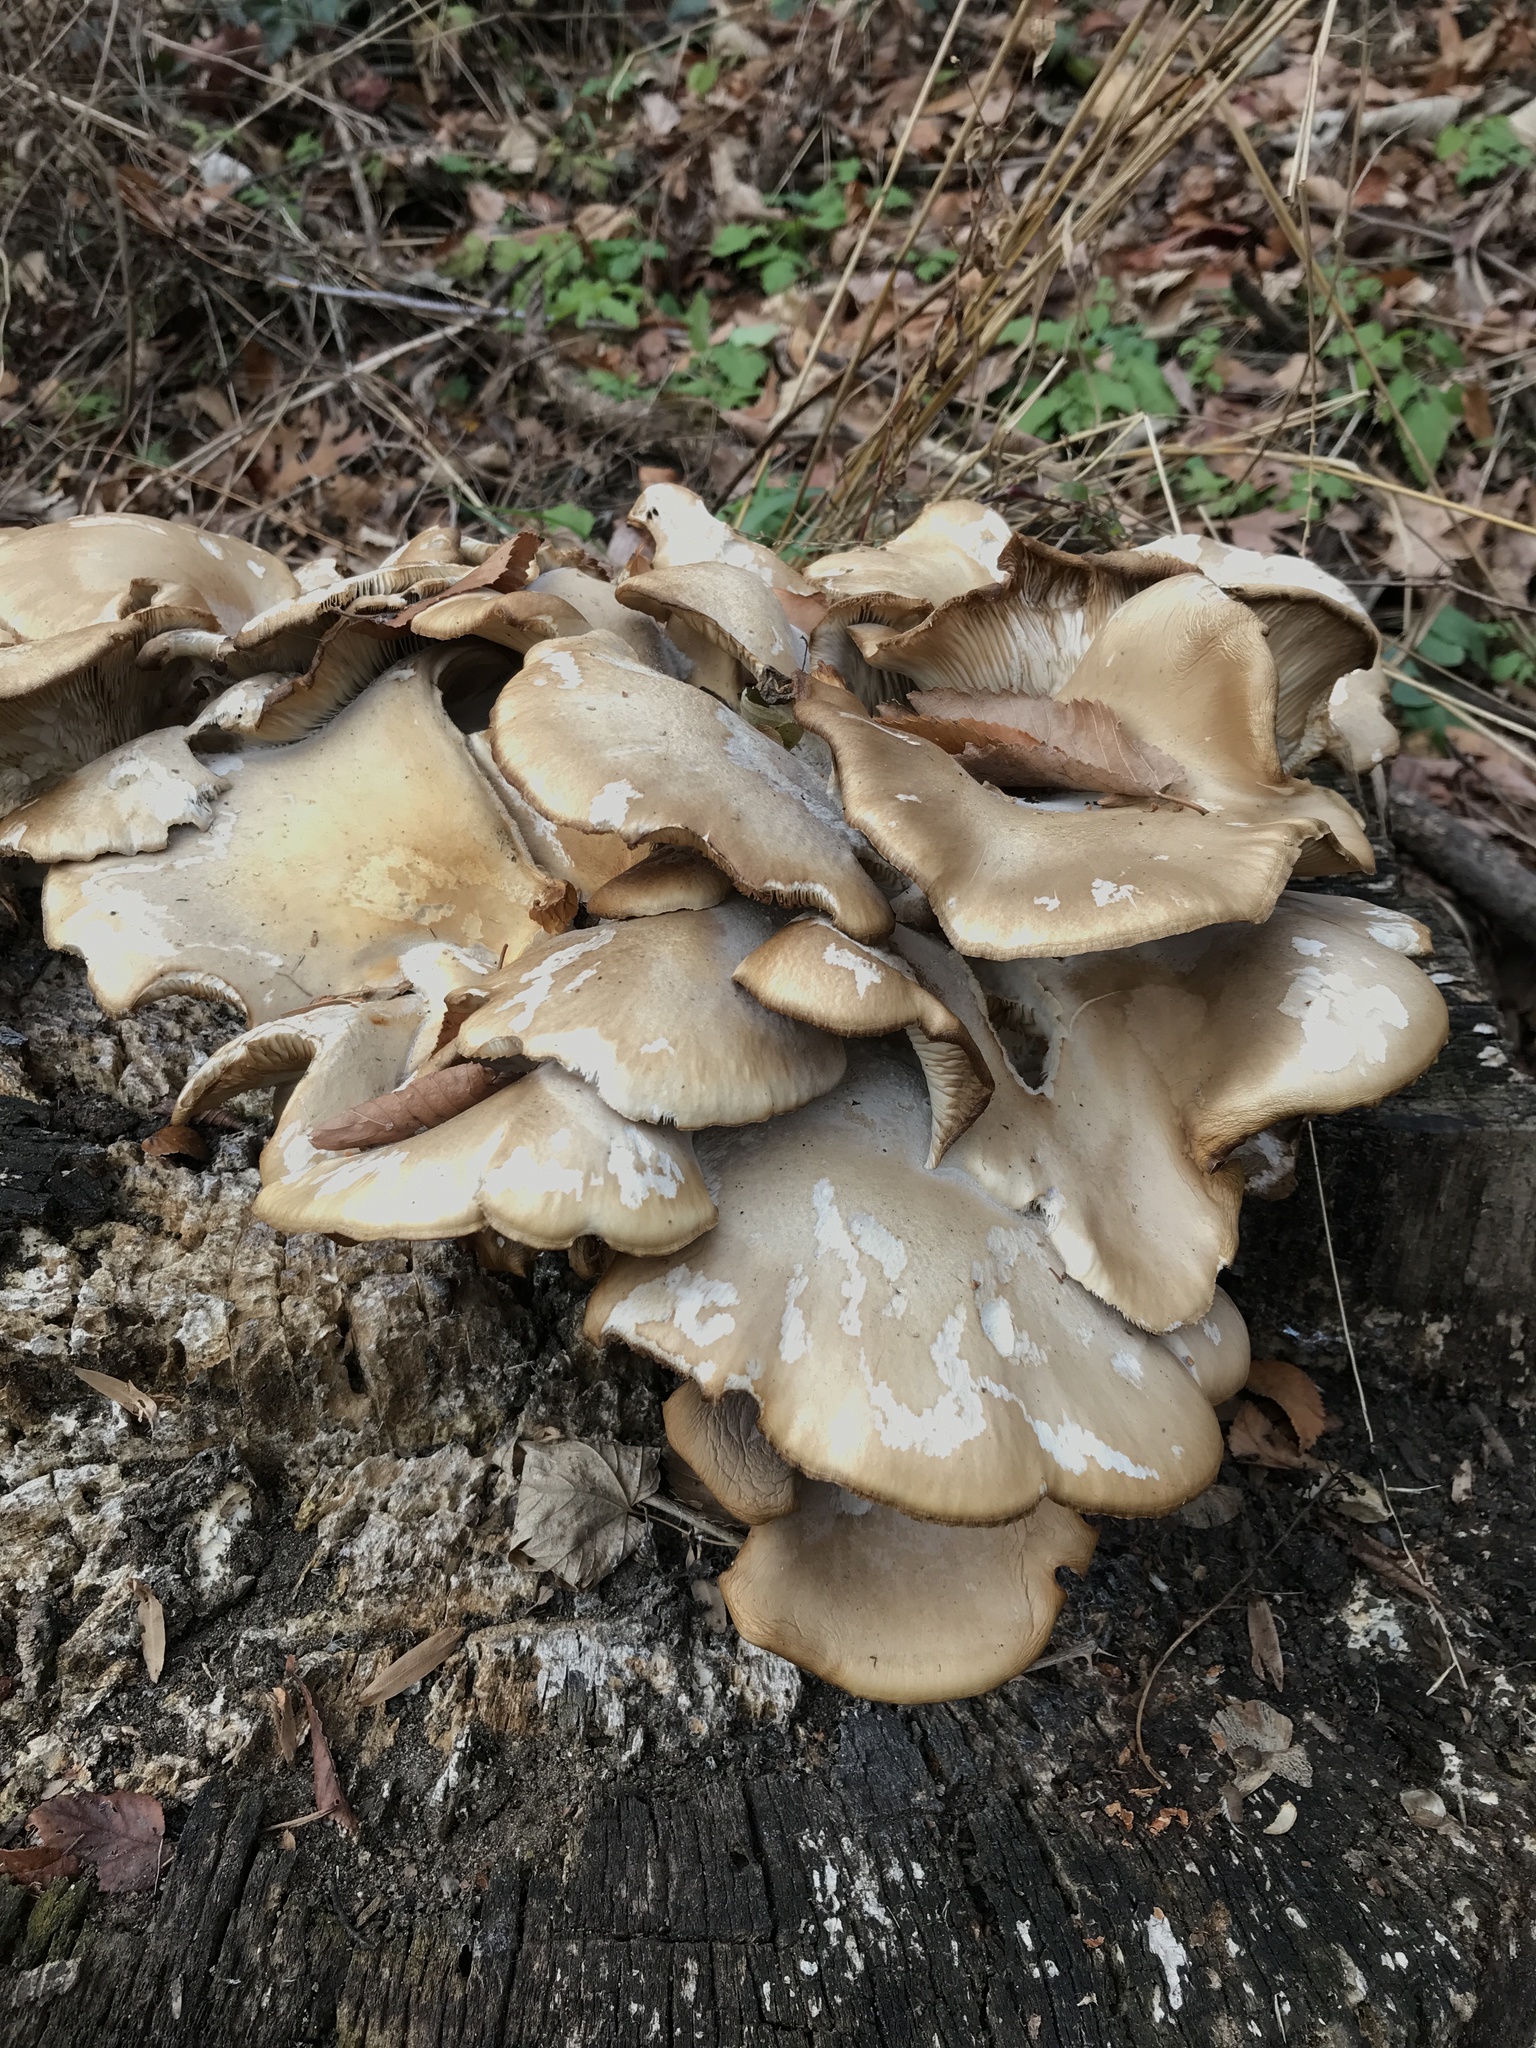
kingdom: Fungi
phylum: Basidiomycota
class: Agaricomycetes
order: Agaricales
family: Pleurotaceae
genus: Pleurotus
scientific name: Pleurotus ostreatus
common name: Oyster mushroom
